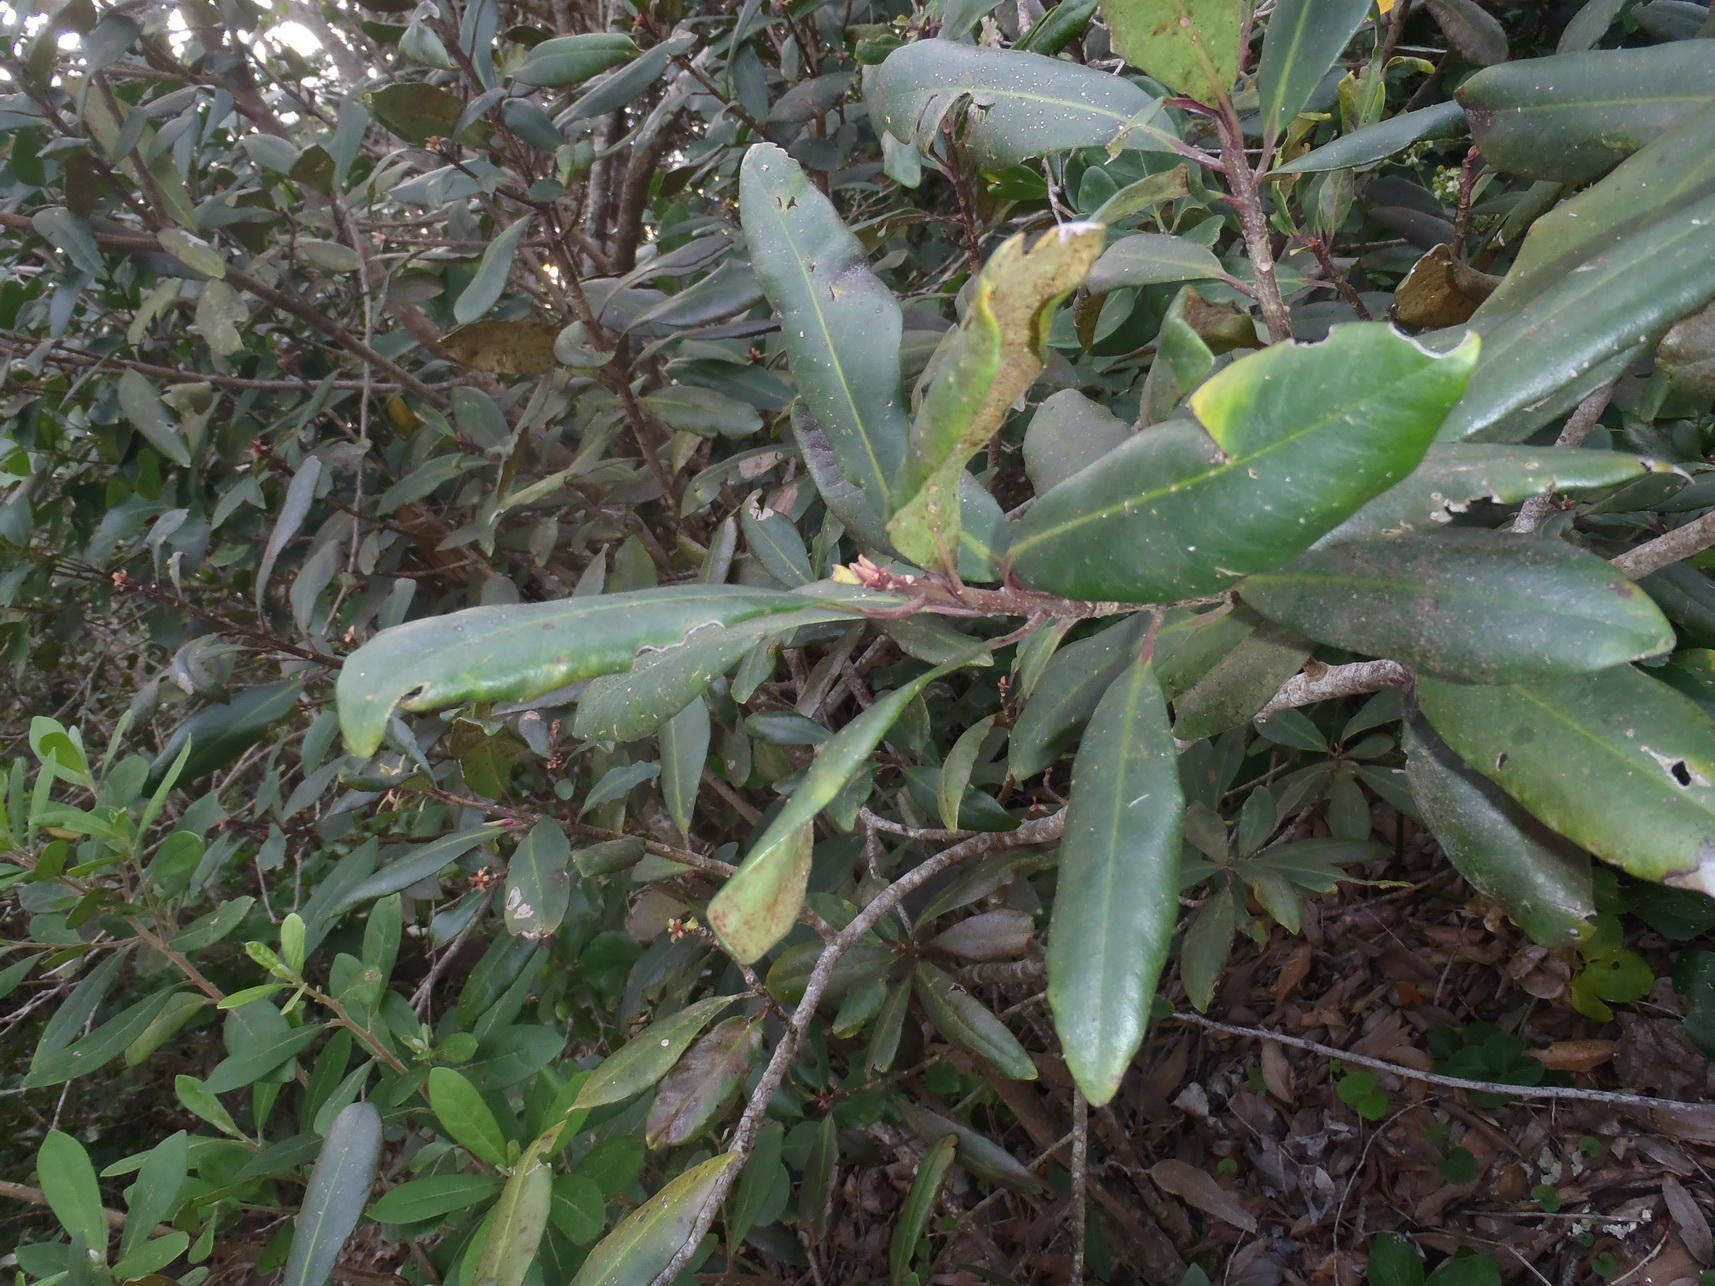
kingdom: Plantae
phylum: Tracheophyta
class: Magnoliopsida
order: Ericales
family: Primulaceae
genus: Myrsine
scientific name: Myrsine melanophloeos
